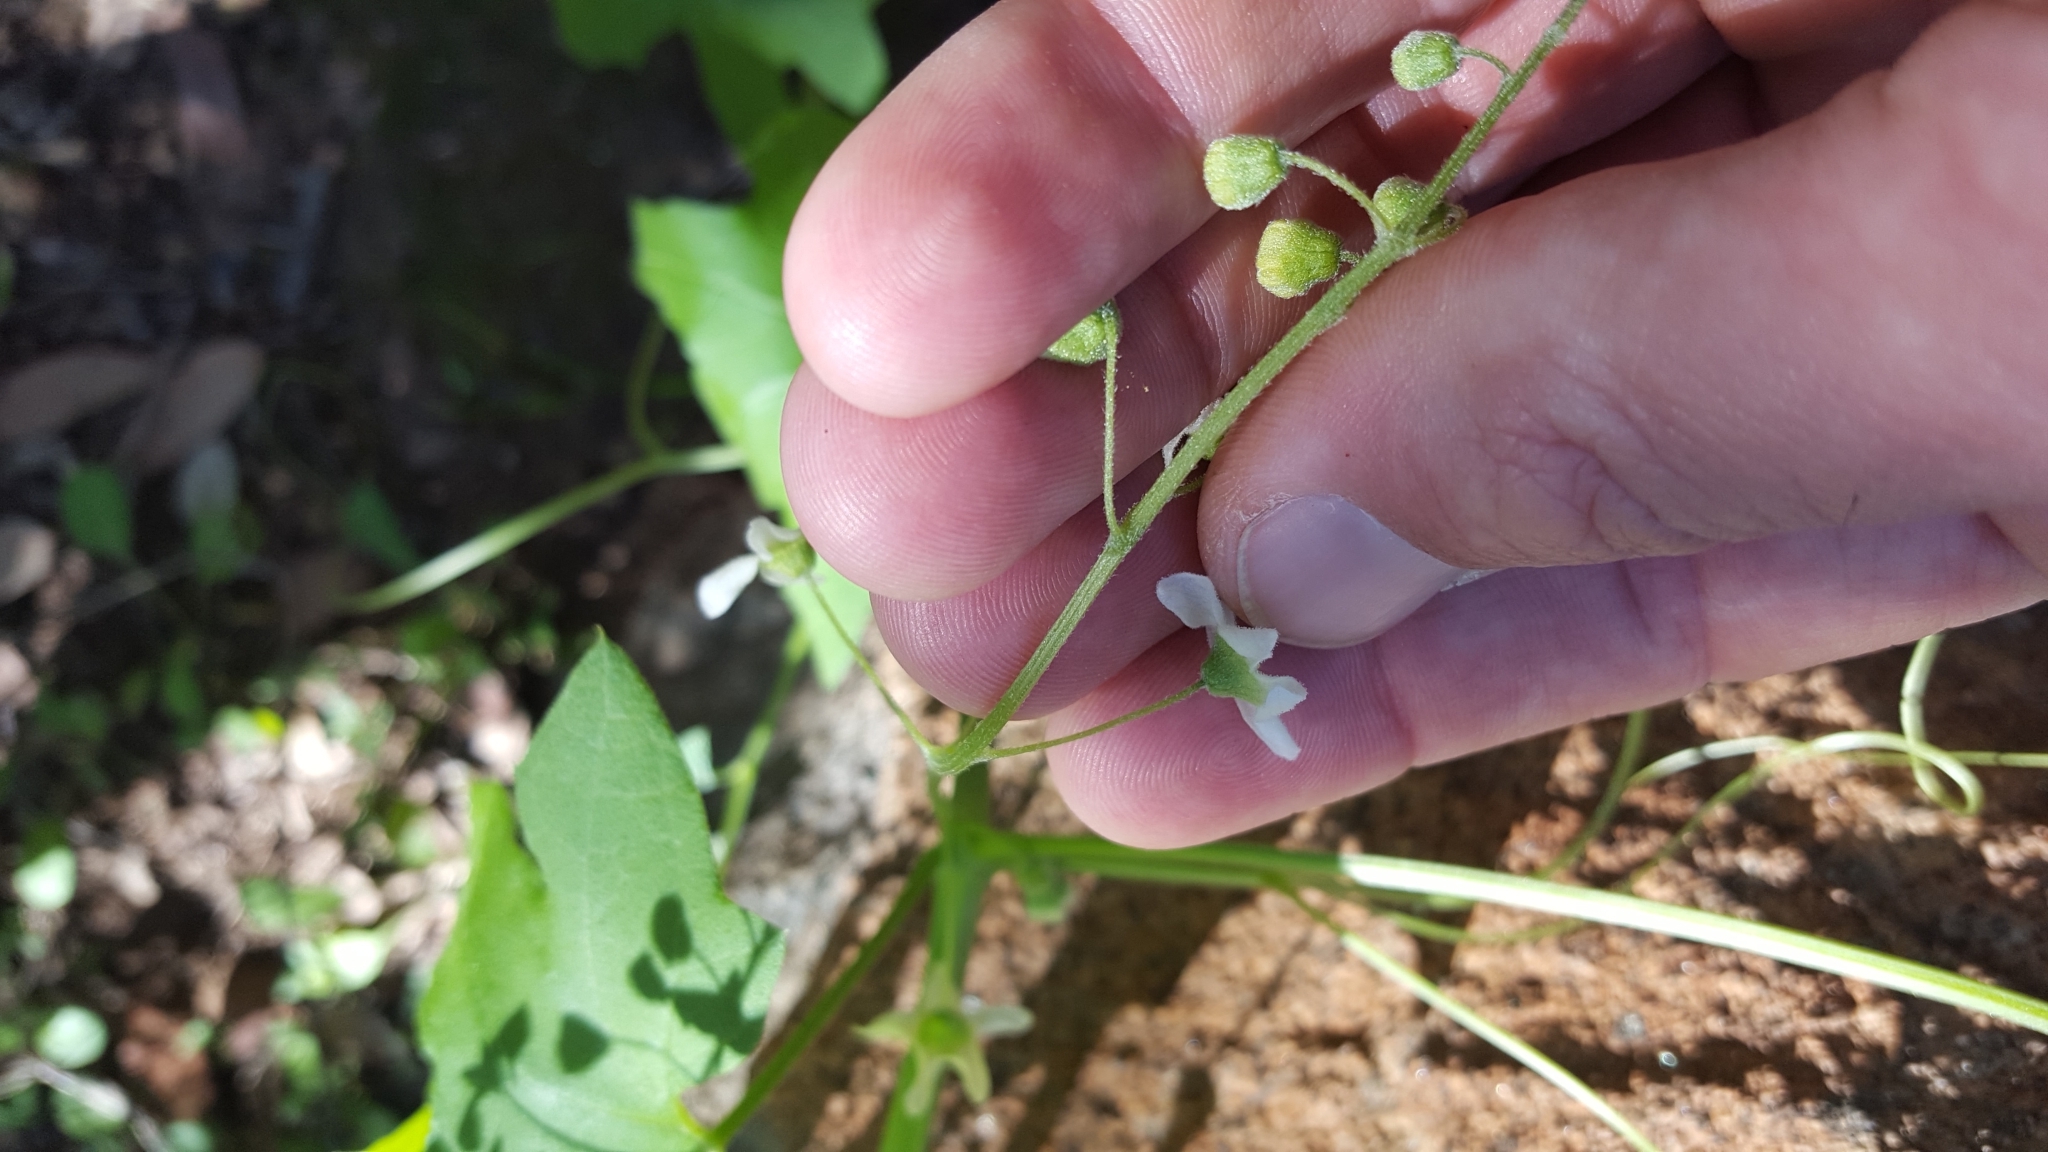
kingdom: Plantae
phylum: Tracheophyta
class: Magnoliopsida
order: Cucurbitales
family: Cucurbitaceae
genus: Marah
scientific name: Marah macrocarpa
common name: Cucamonga manroot
